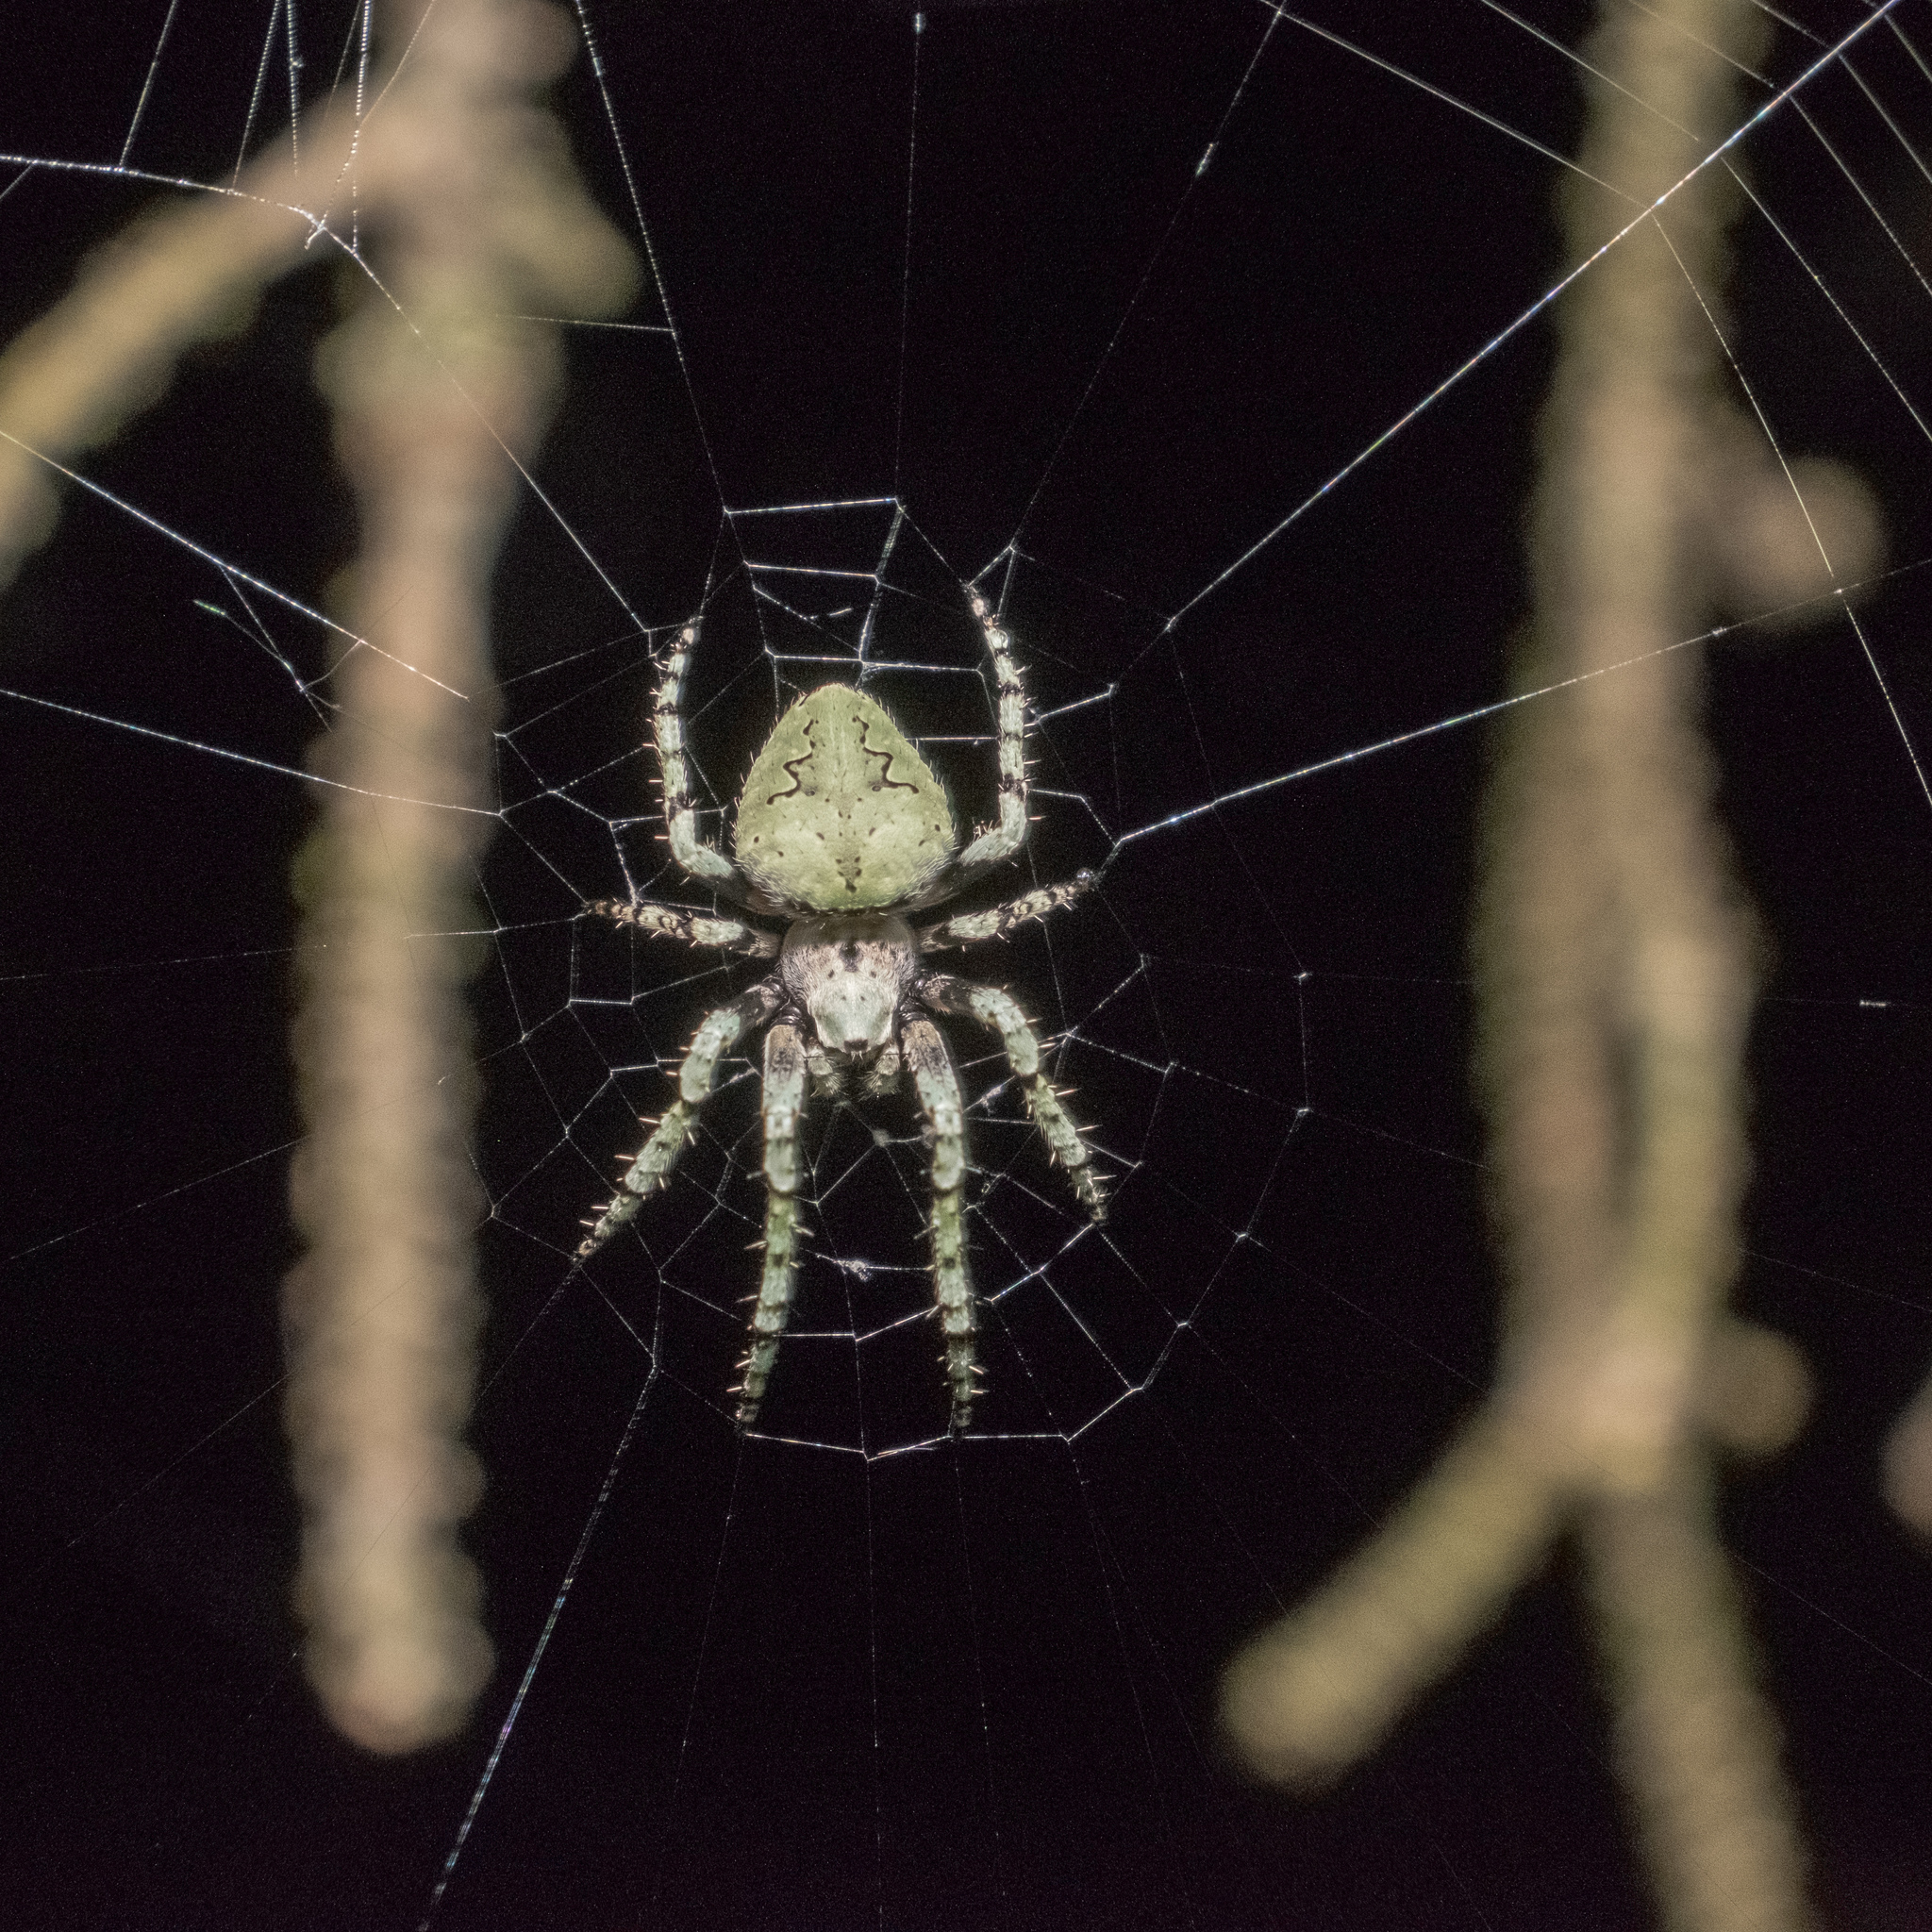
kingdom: Animalia
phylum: Arthropoda
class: Arachnida
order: Araneae
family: Araneidae
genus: Eustala
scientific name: Eustala
